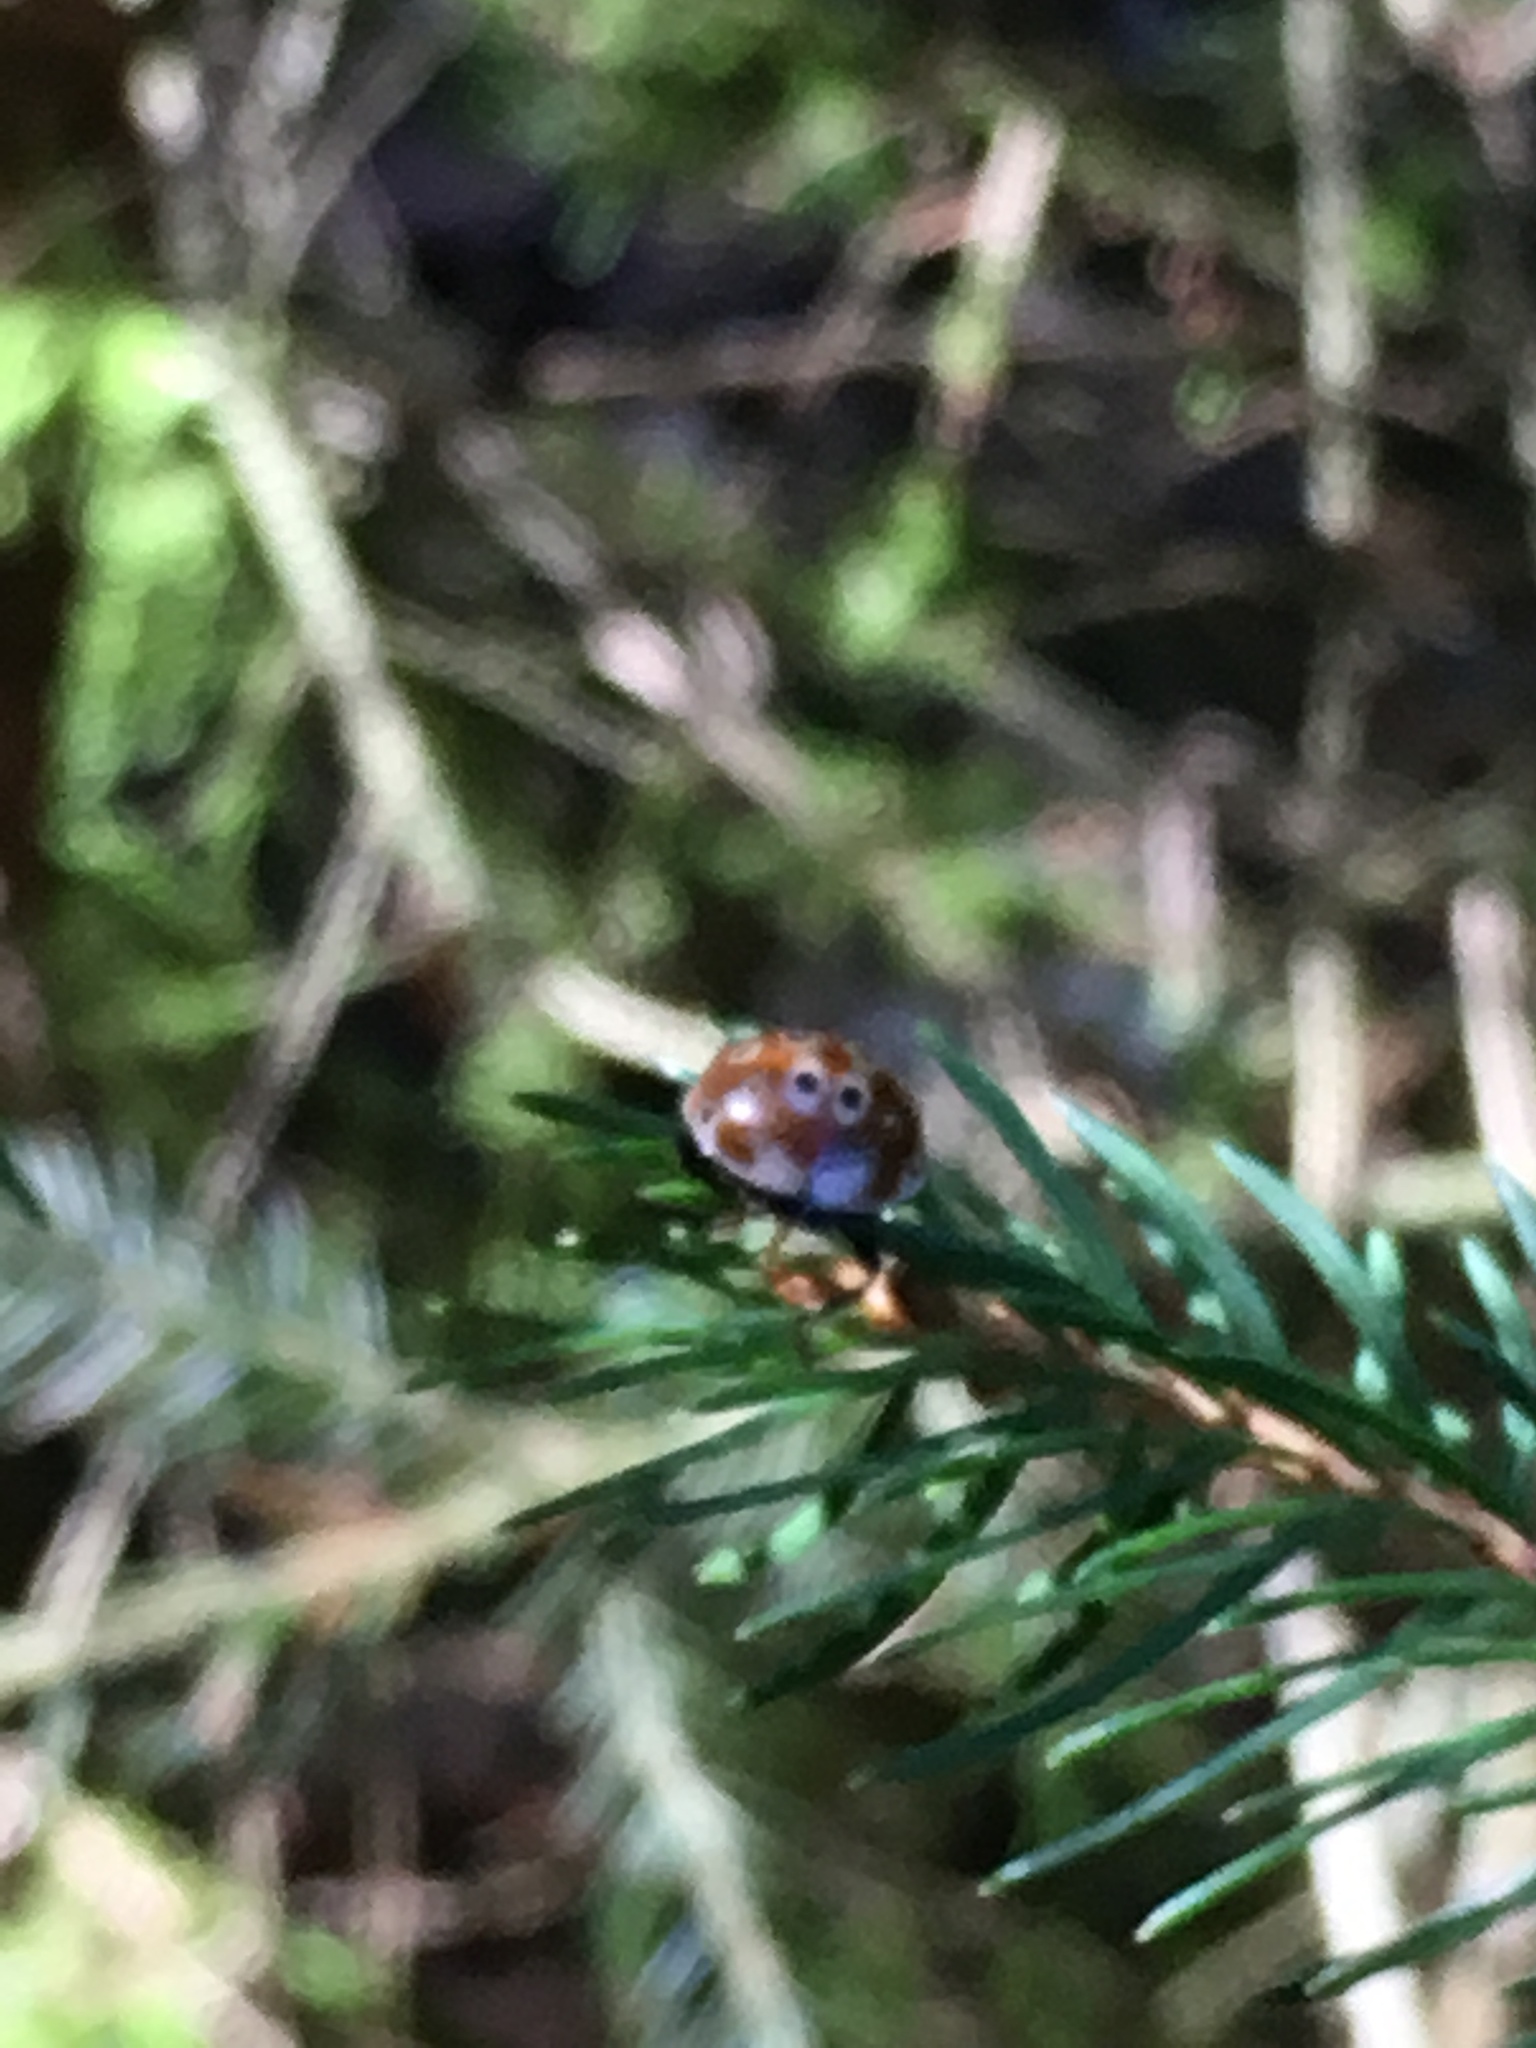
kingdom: Animalia
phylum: Arthropoda
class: Insecta
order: Coleoptera
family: Coccinellidae
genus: Anatis
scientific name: Anatis ocellata
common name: Eyed ladybird
